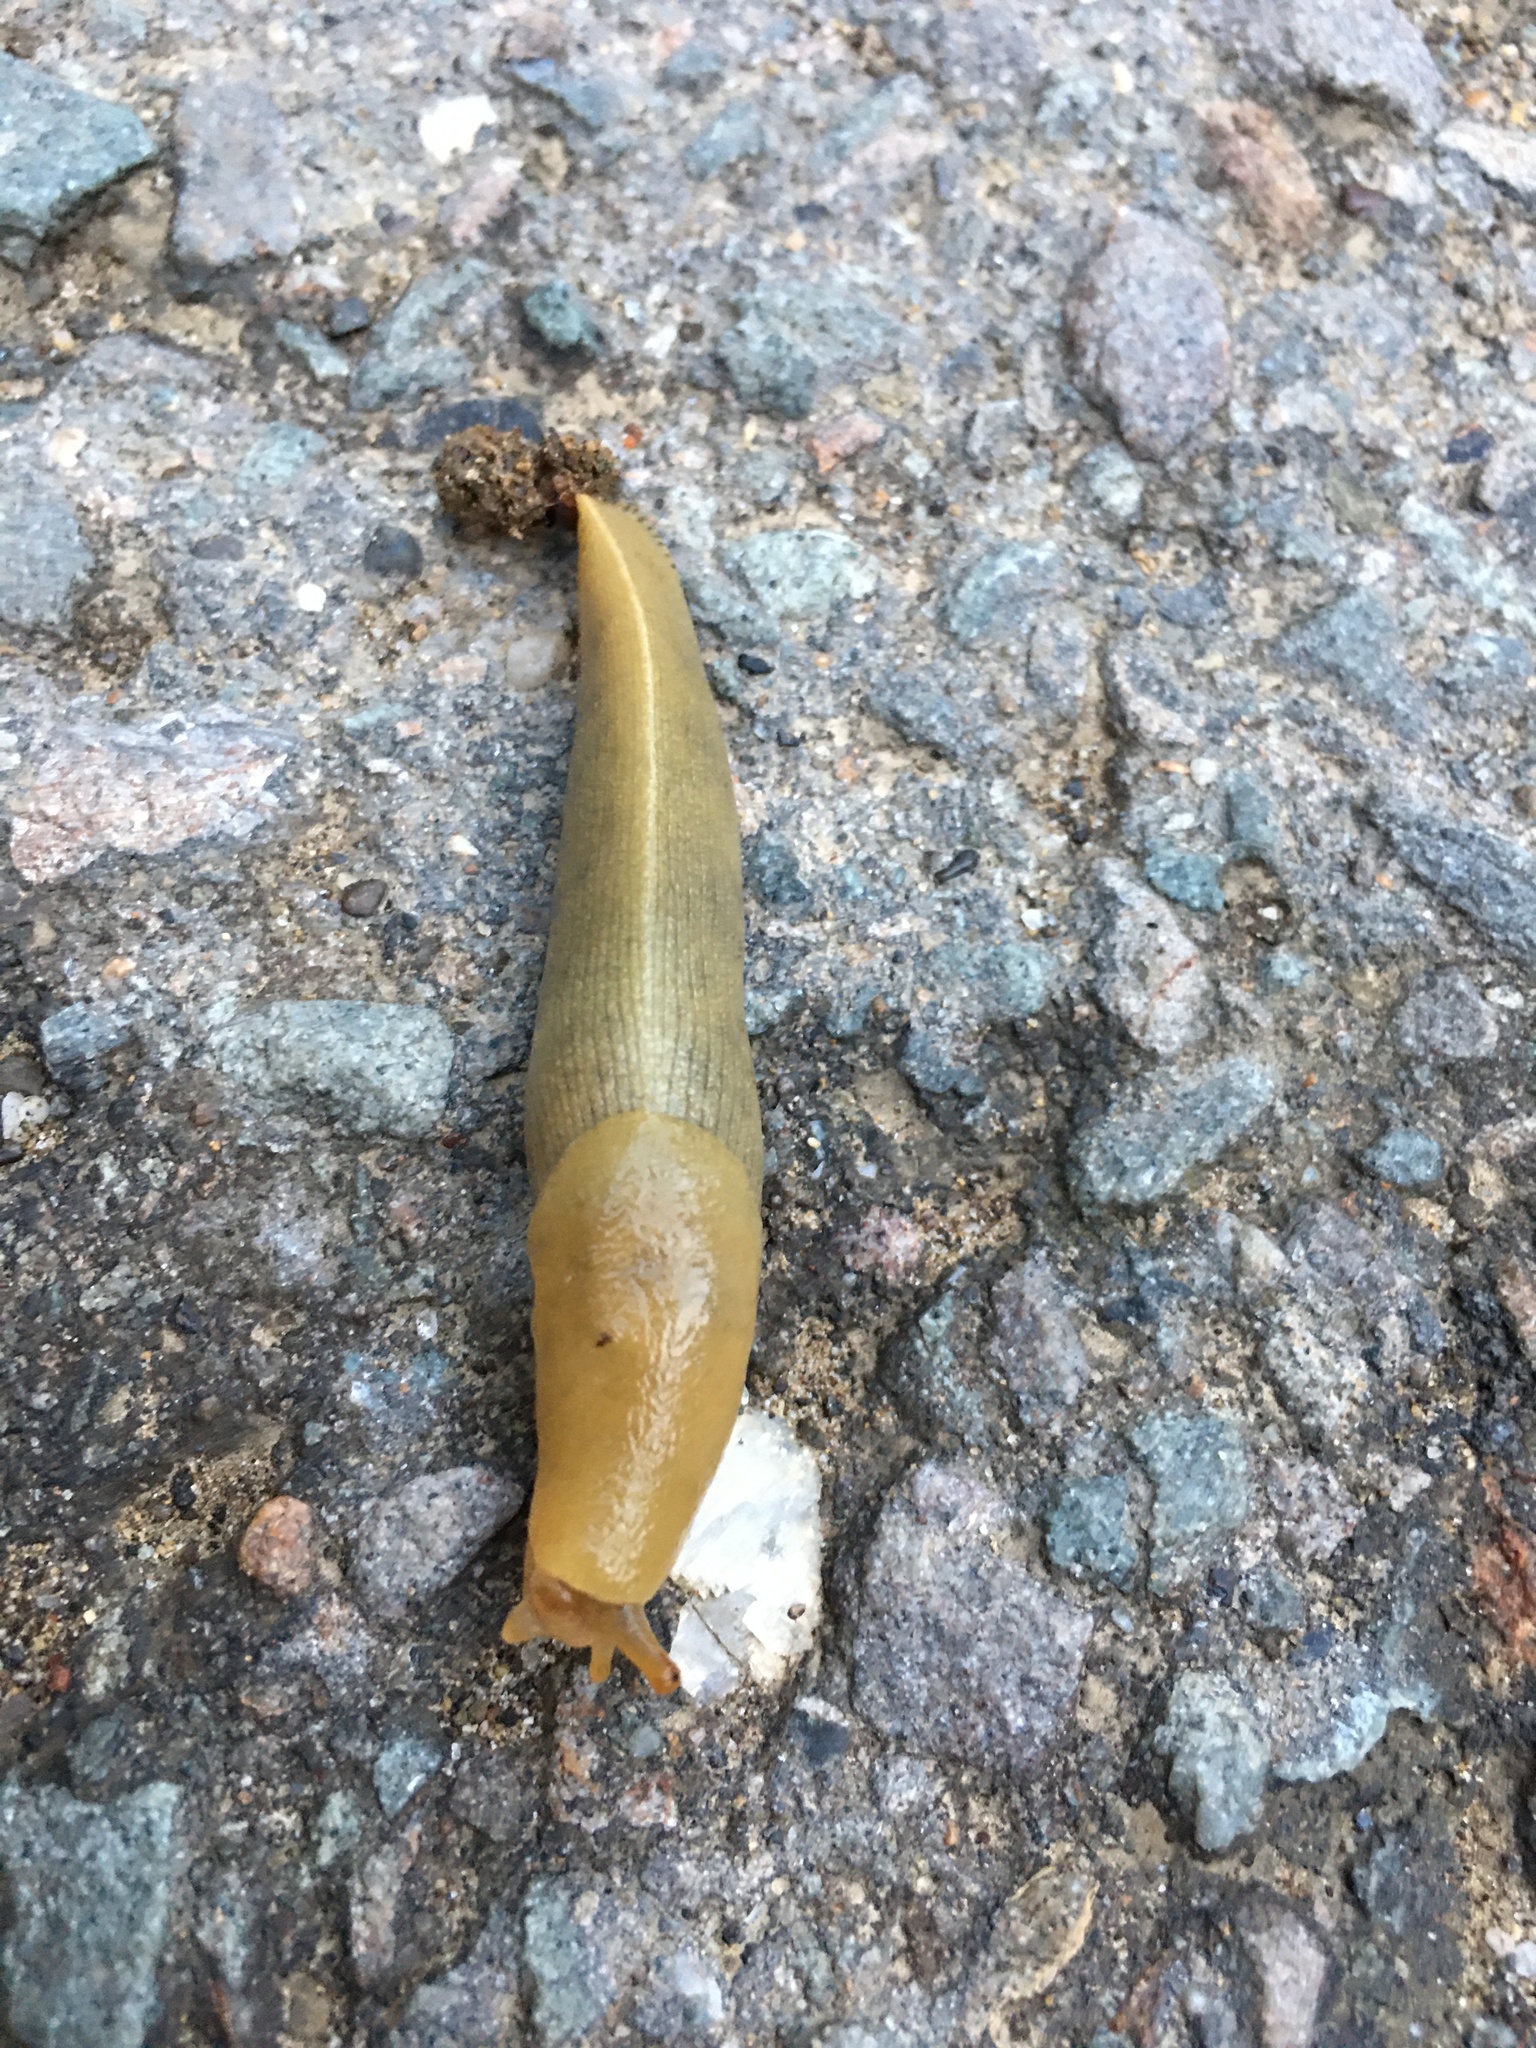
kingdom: Animalia
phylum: Mollusca
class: Gastropoda
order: Stylommatophora
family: Ariolimacidae
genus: Ariolimax
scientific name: Ariolimax buttoni
